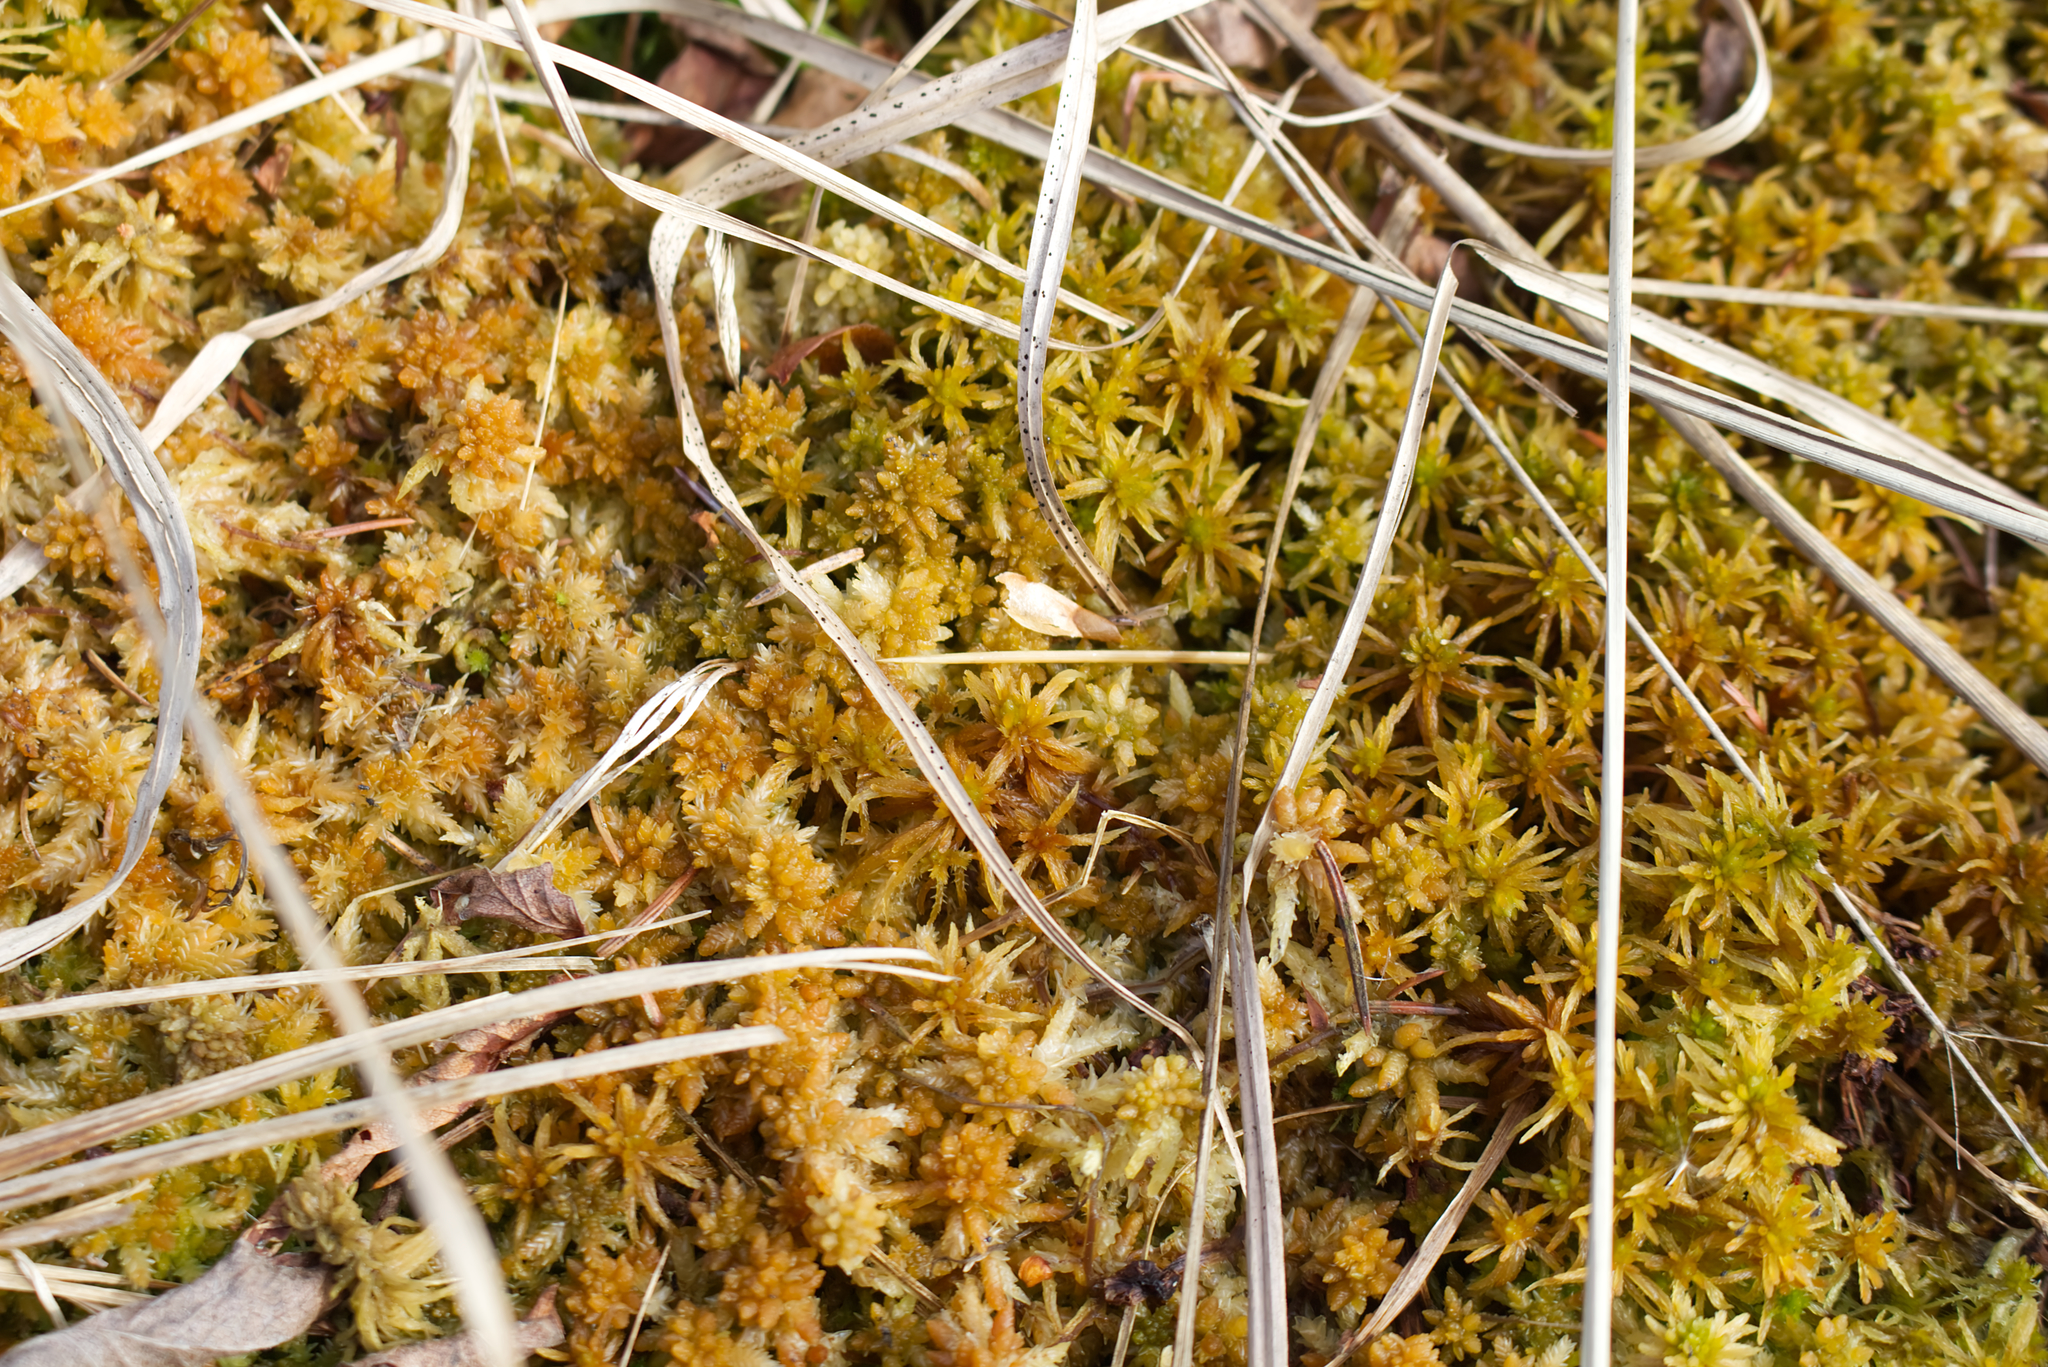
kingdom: Plantae
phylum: Bryophyta
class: Sphagnopsida
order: Sphagnales
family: Sphagnaceae
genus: Sphagnum
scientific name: Sphagnum palustre
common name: Blunt-leaved bog-moss
